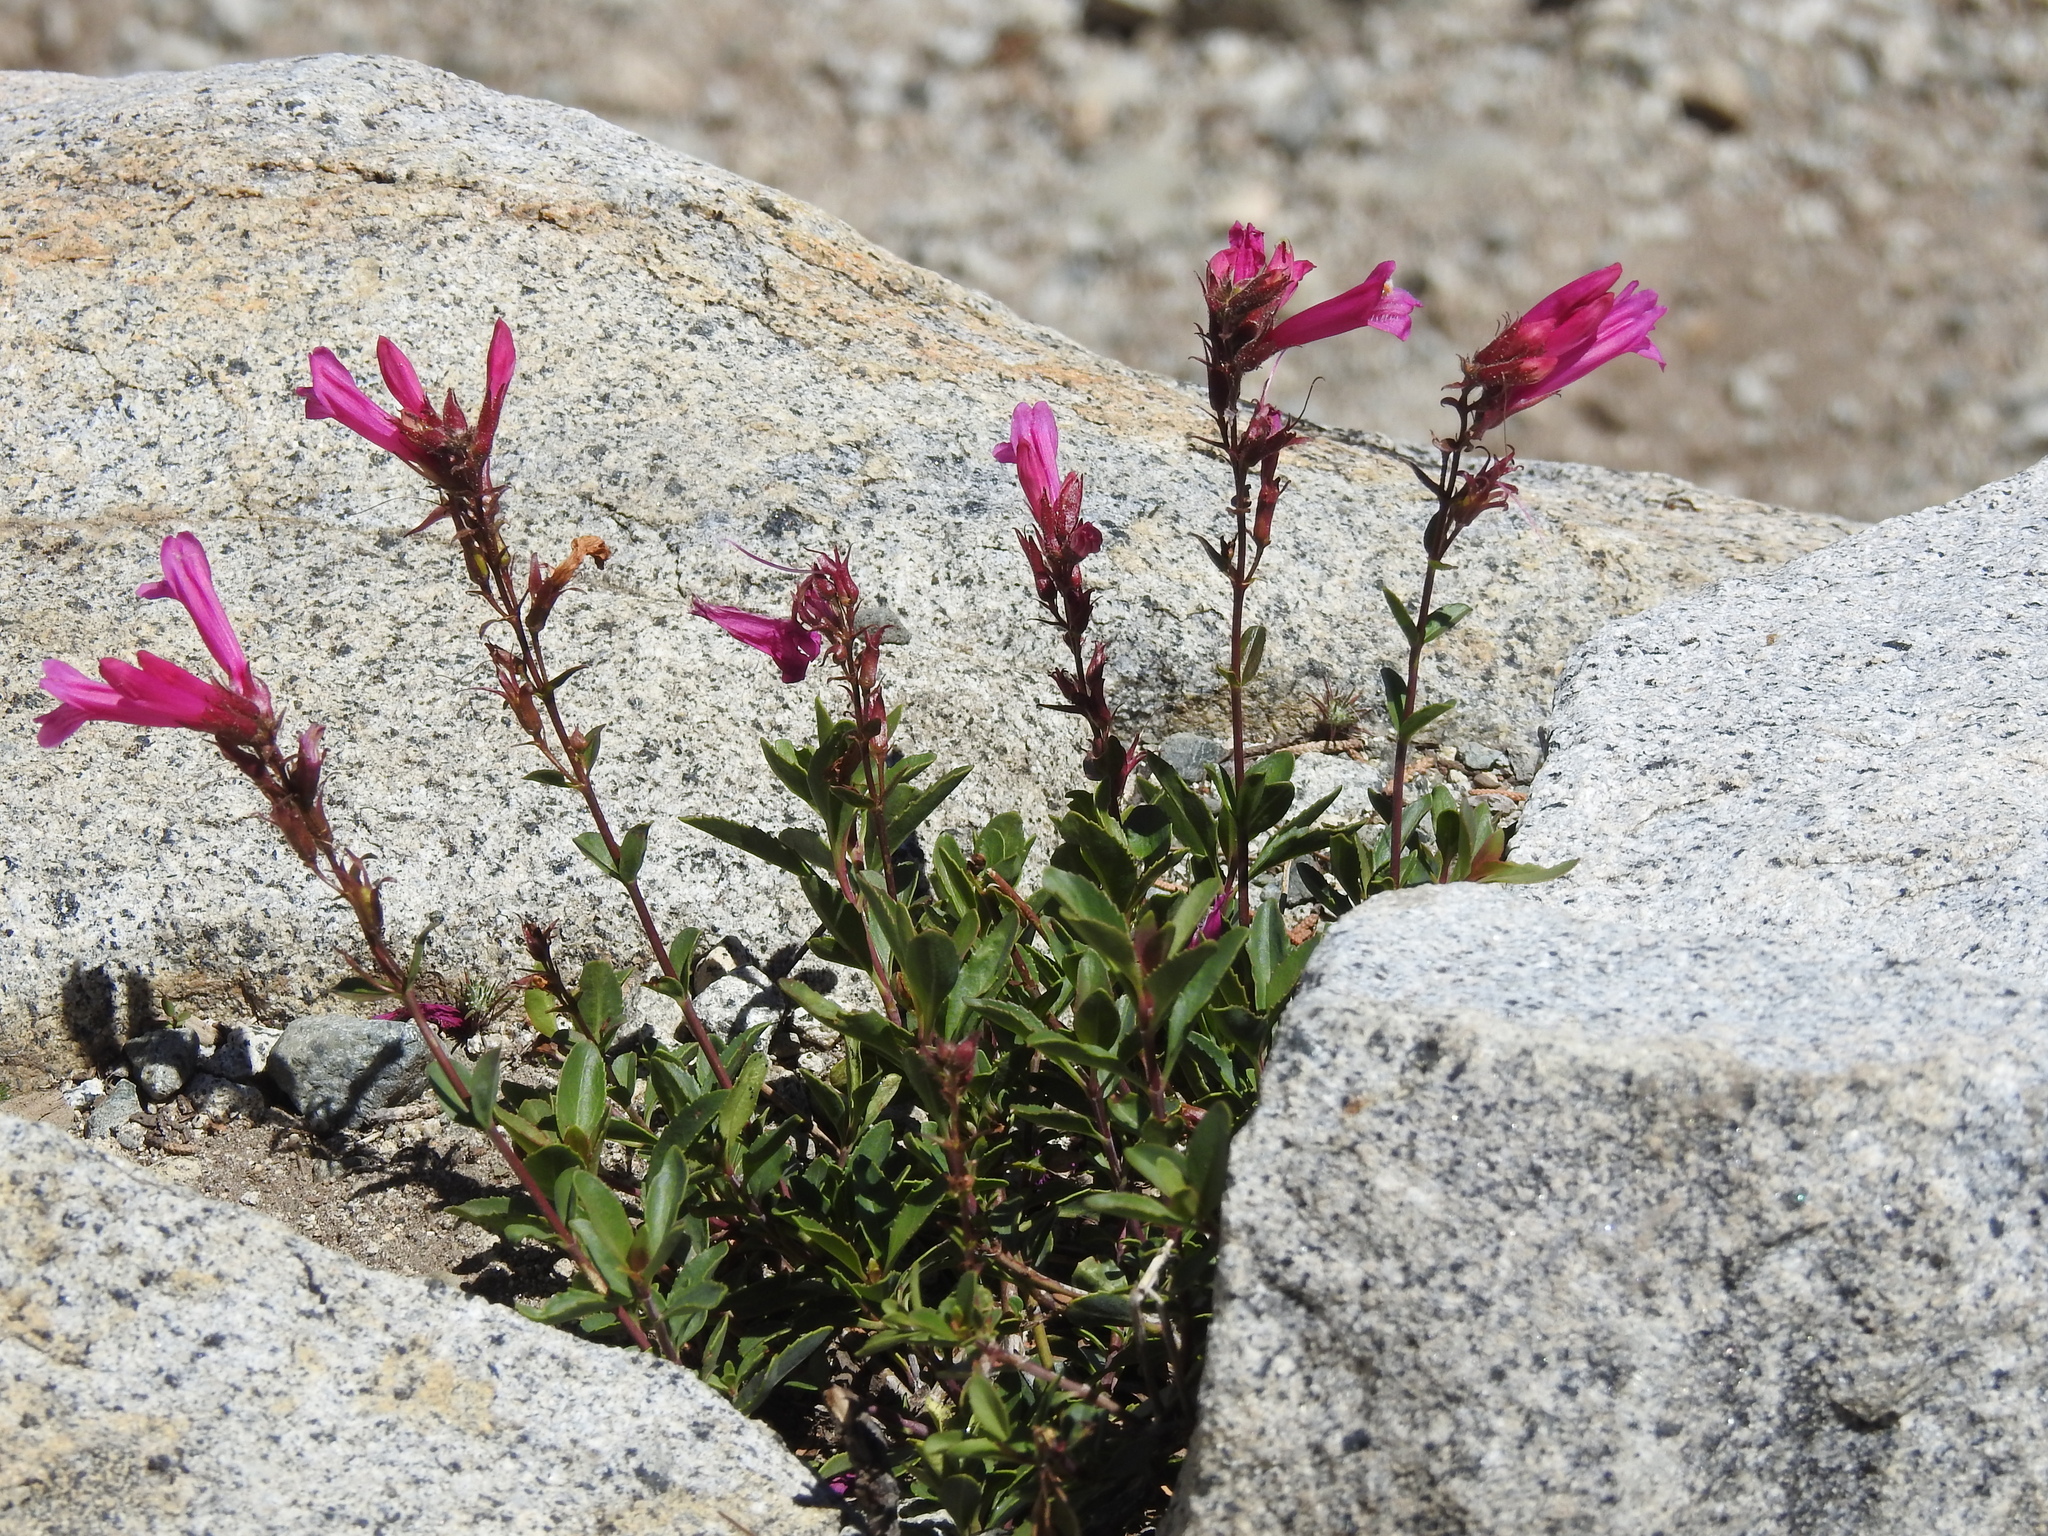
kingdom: Plantae
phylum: Tracheophyta
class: Magnoliopsida
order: Lamiales
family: Plantaginaceae
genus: Penstemon
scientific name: Penstemon newberryi
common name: Mountain-pride
